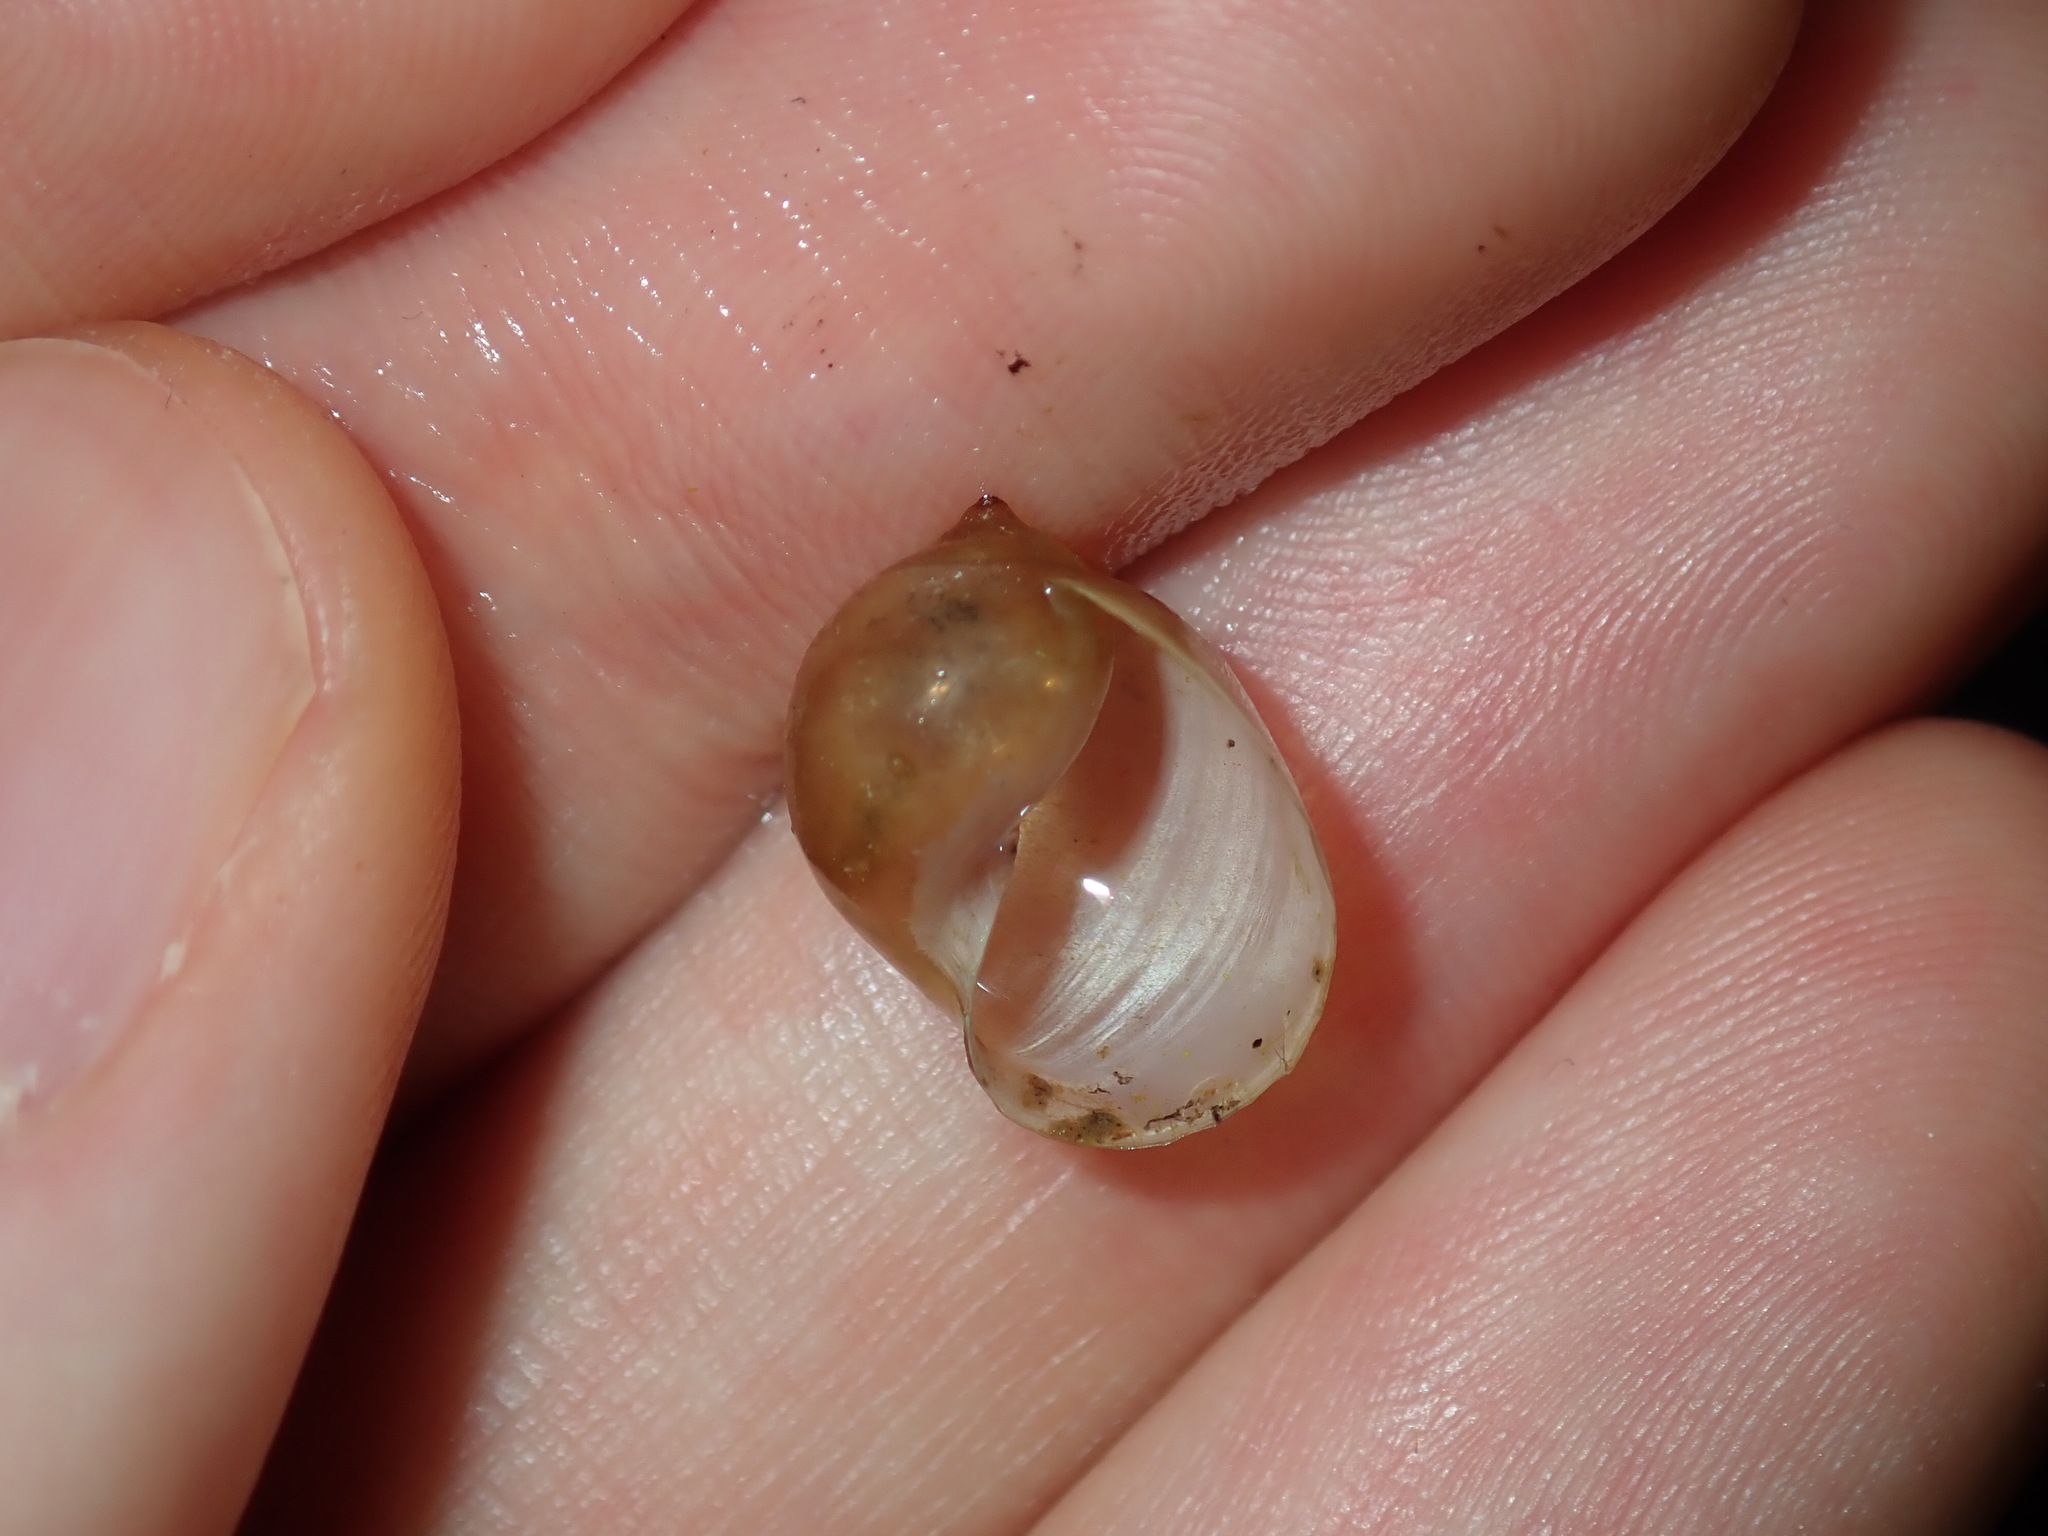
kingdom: Animalia
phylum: Mollusca
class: Gastropoda
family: Lymnaeidae
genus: Bullastra
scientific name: Bullastra lessoni
